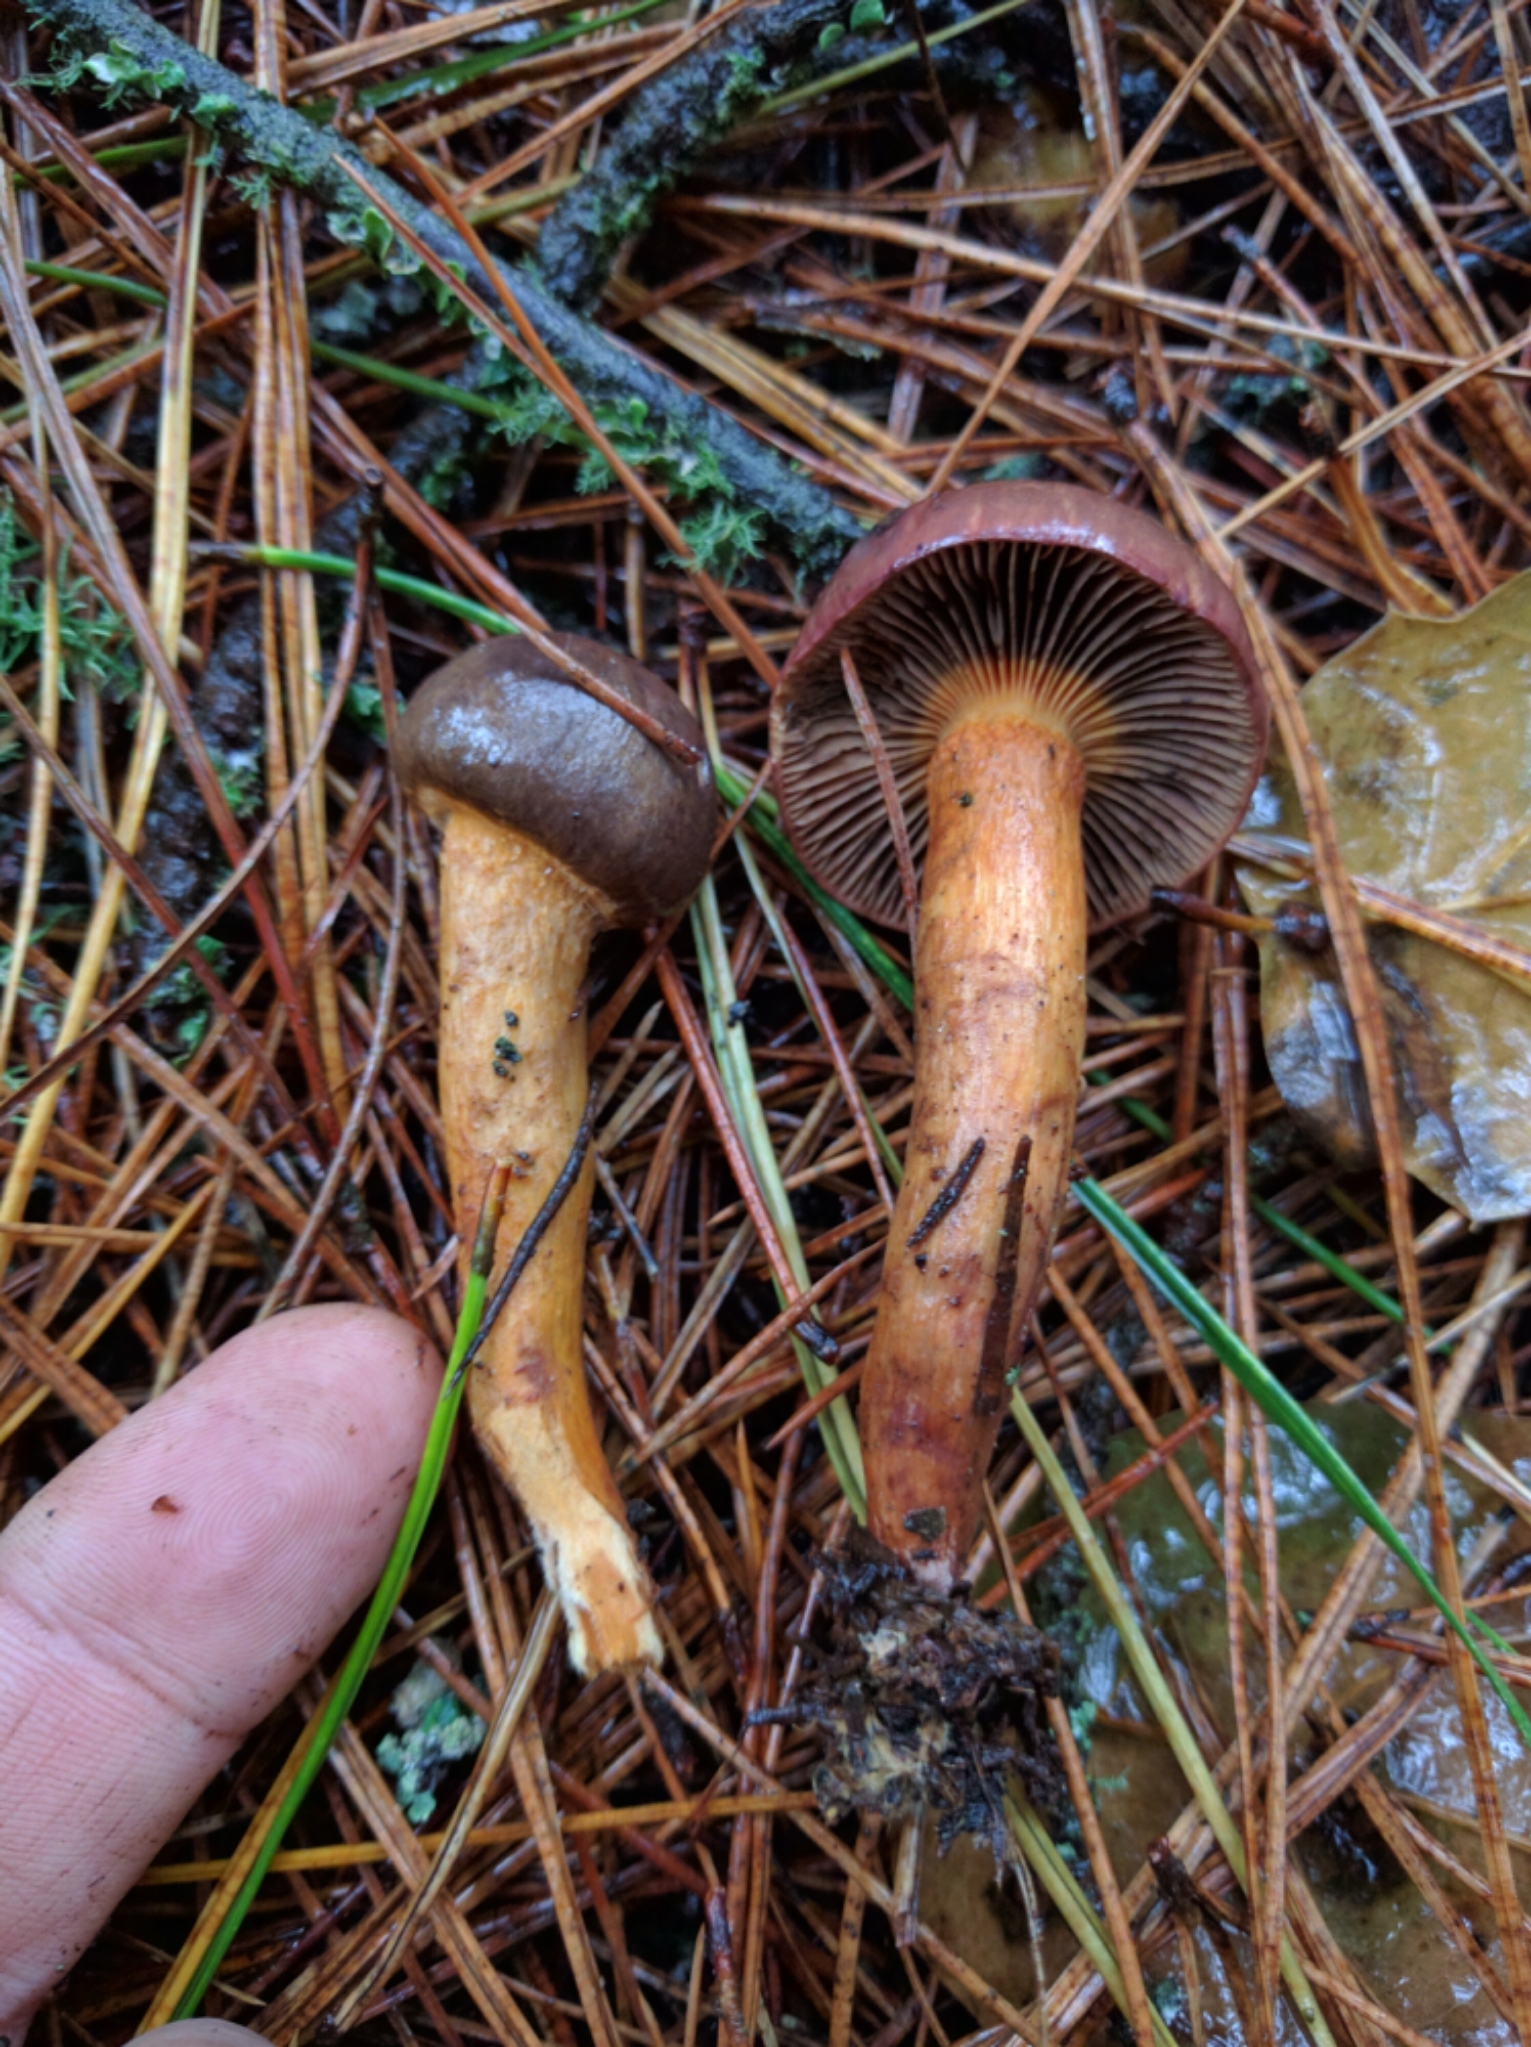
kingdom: Fungi
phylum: Basidiomycota
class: Agaricomycetes
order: Boletales
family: Gomphidiaceae
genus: Chroogomphus
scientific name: Chroogomphus vinicolor
